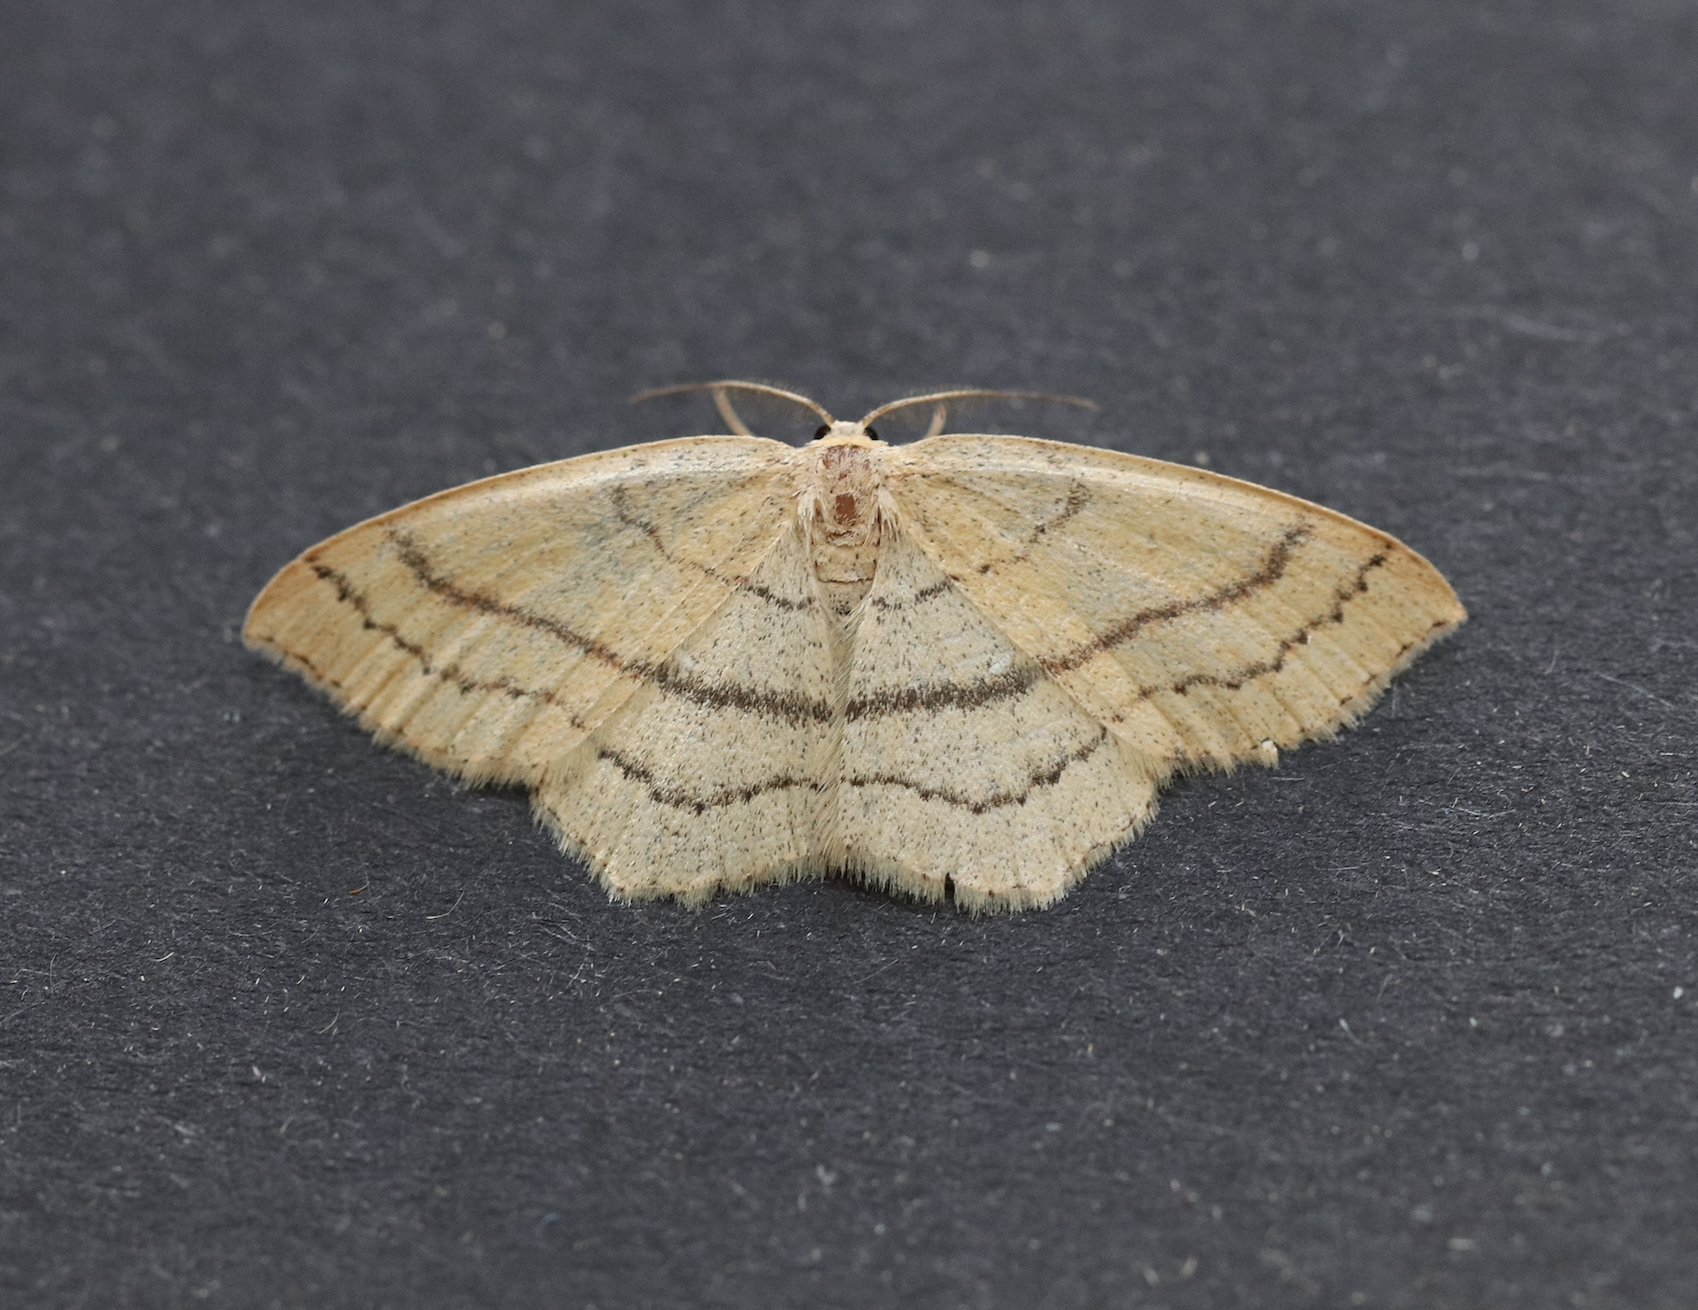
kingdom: Animalia
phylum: Arthropoda
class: Insecta
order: Lepidoptera
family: Geometridae
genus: Cyclophora
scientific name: Cyclophora linearia
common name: Clay triple-lines
